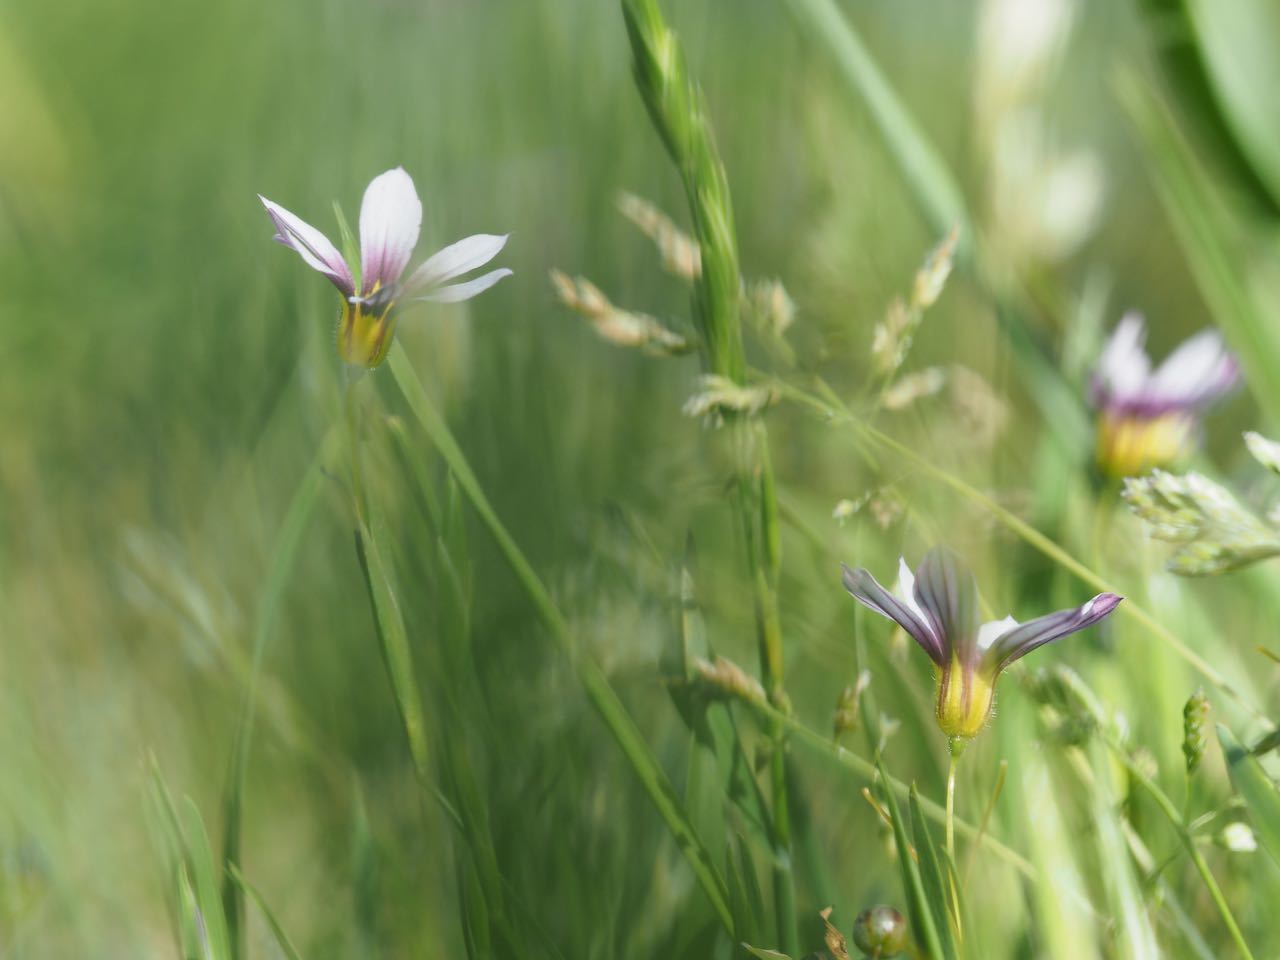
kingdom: Plantae
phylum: Tracheophyta
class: Liliopsida
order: Asparagales
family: Iridaceae
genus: Sisyrinchium
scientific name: Sisyrinchium micranthum
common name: Bermuda pigroot
